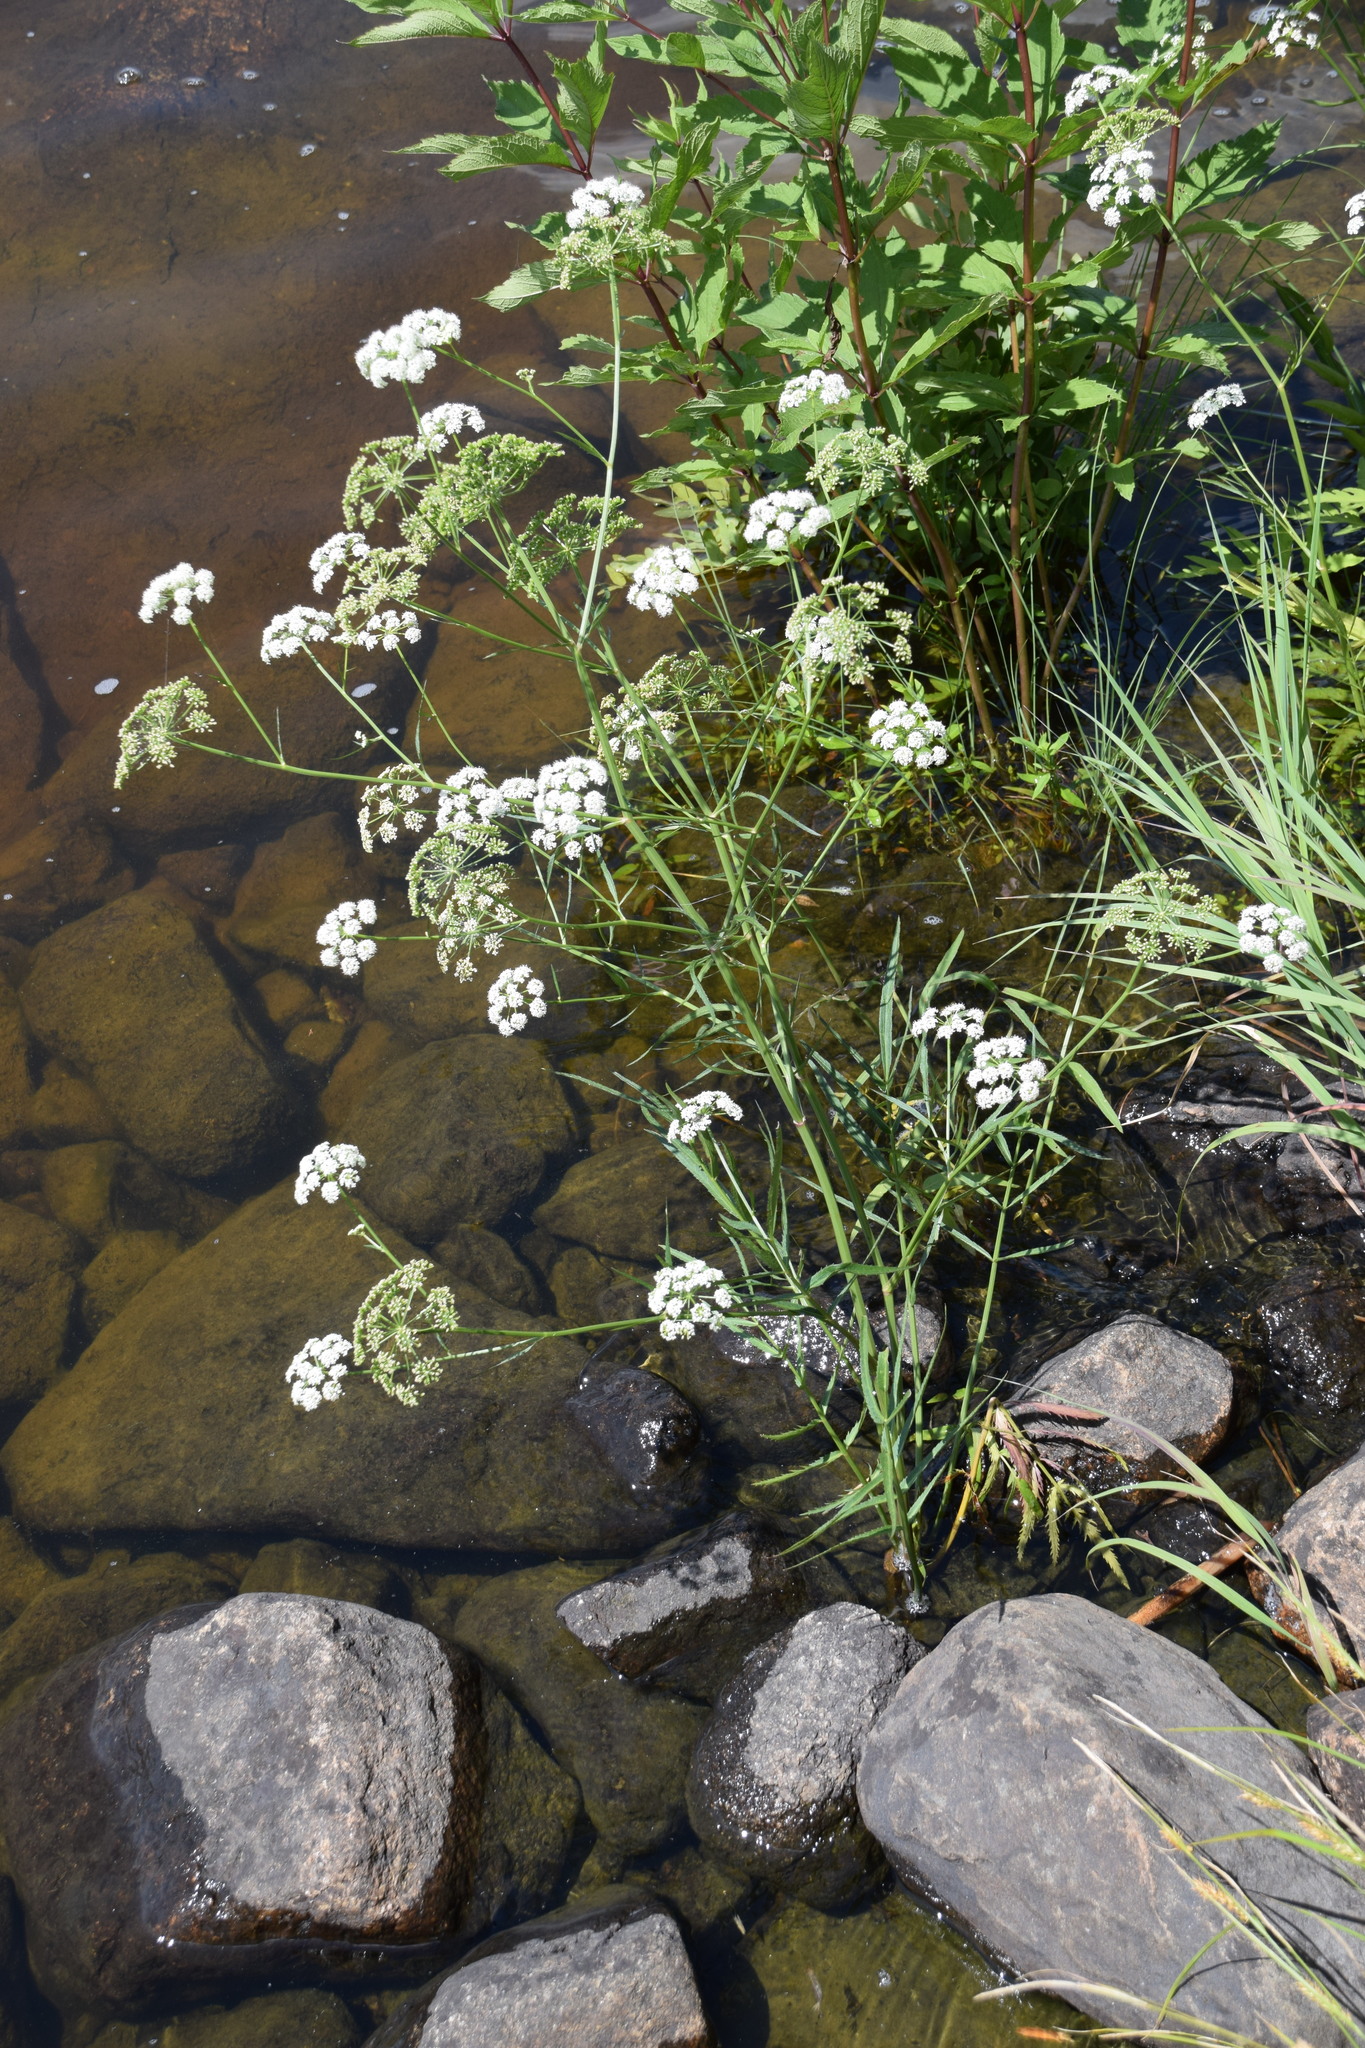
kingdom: Plantae
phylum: Tracheophyta
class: Magnoliopsida
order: Apiales
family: Apiaceae
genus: Sium
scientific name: Sium suave
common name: Hemlock water-parsnip
